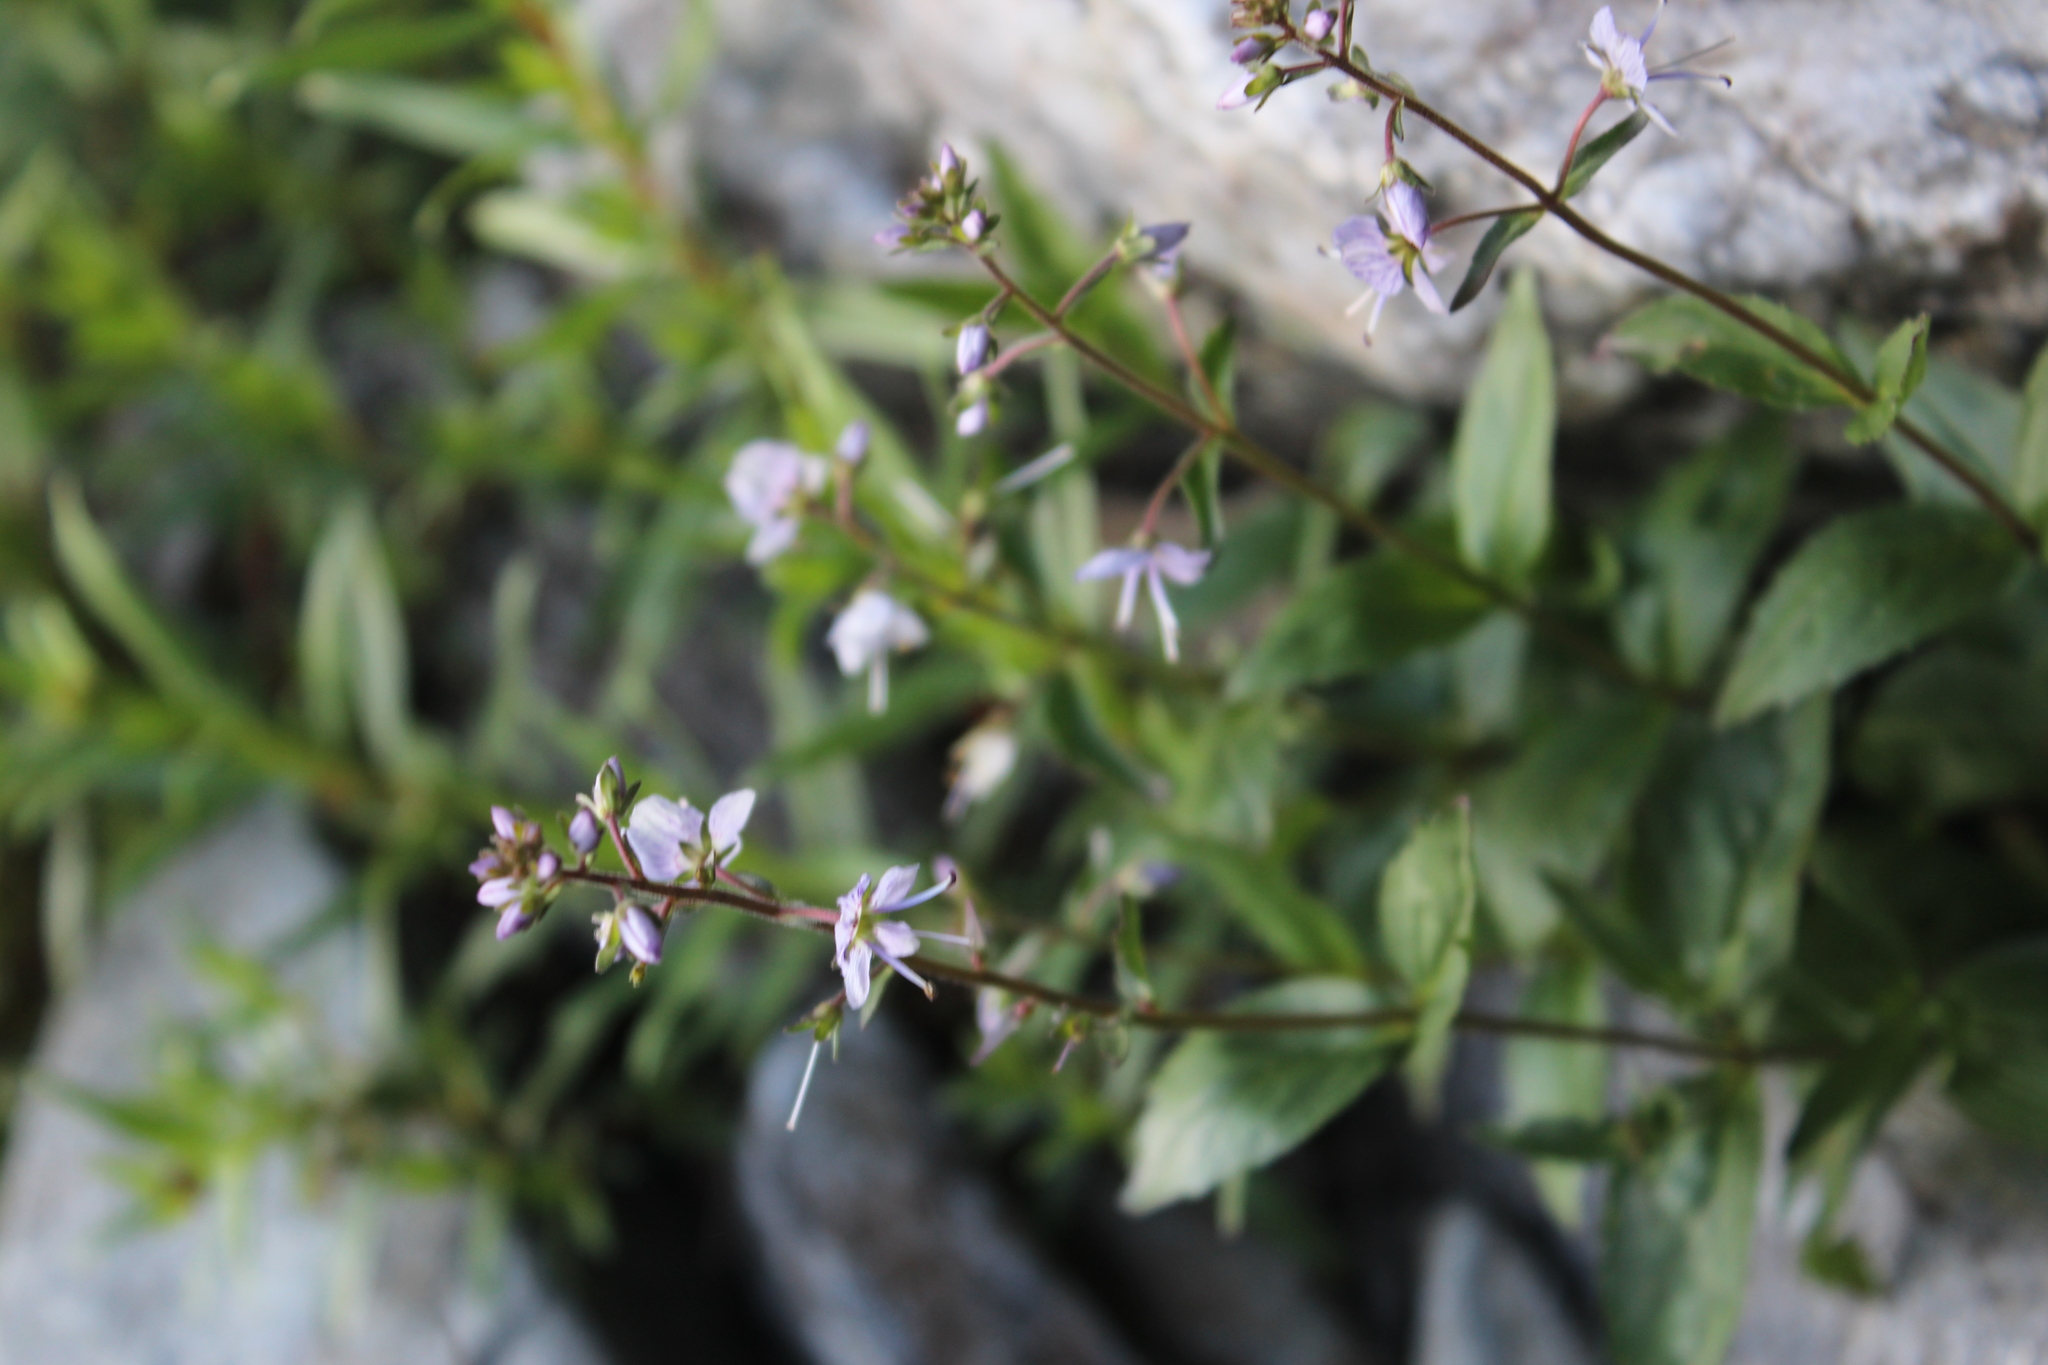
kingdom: Plantae
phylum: Tracheophyta
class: Magnoliopsida
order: Lamiales
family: Plantaginaceae
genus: Veronica
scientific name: Veronica monticola
